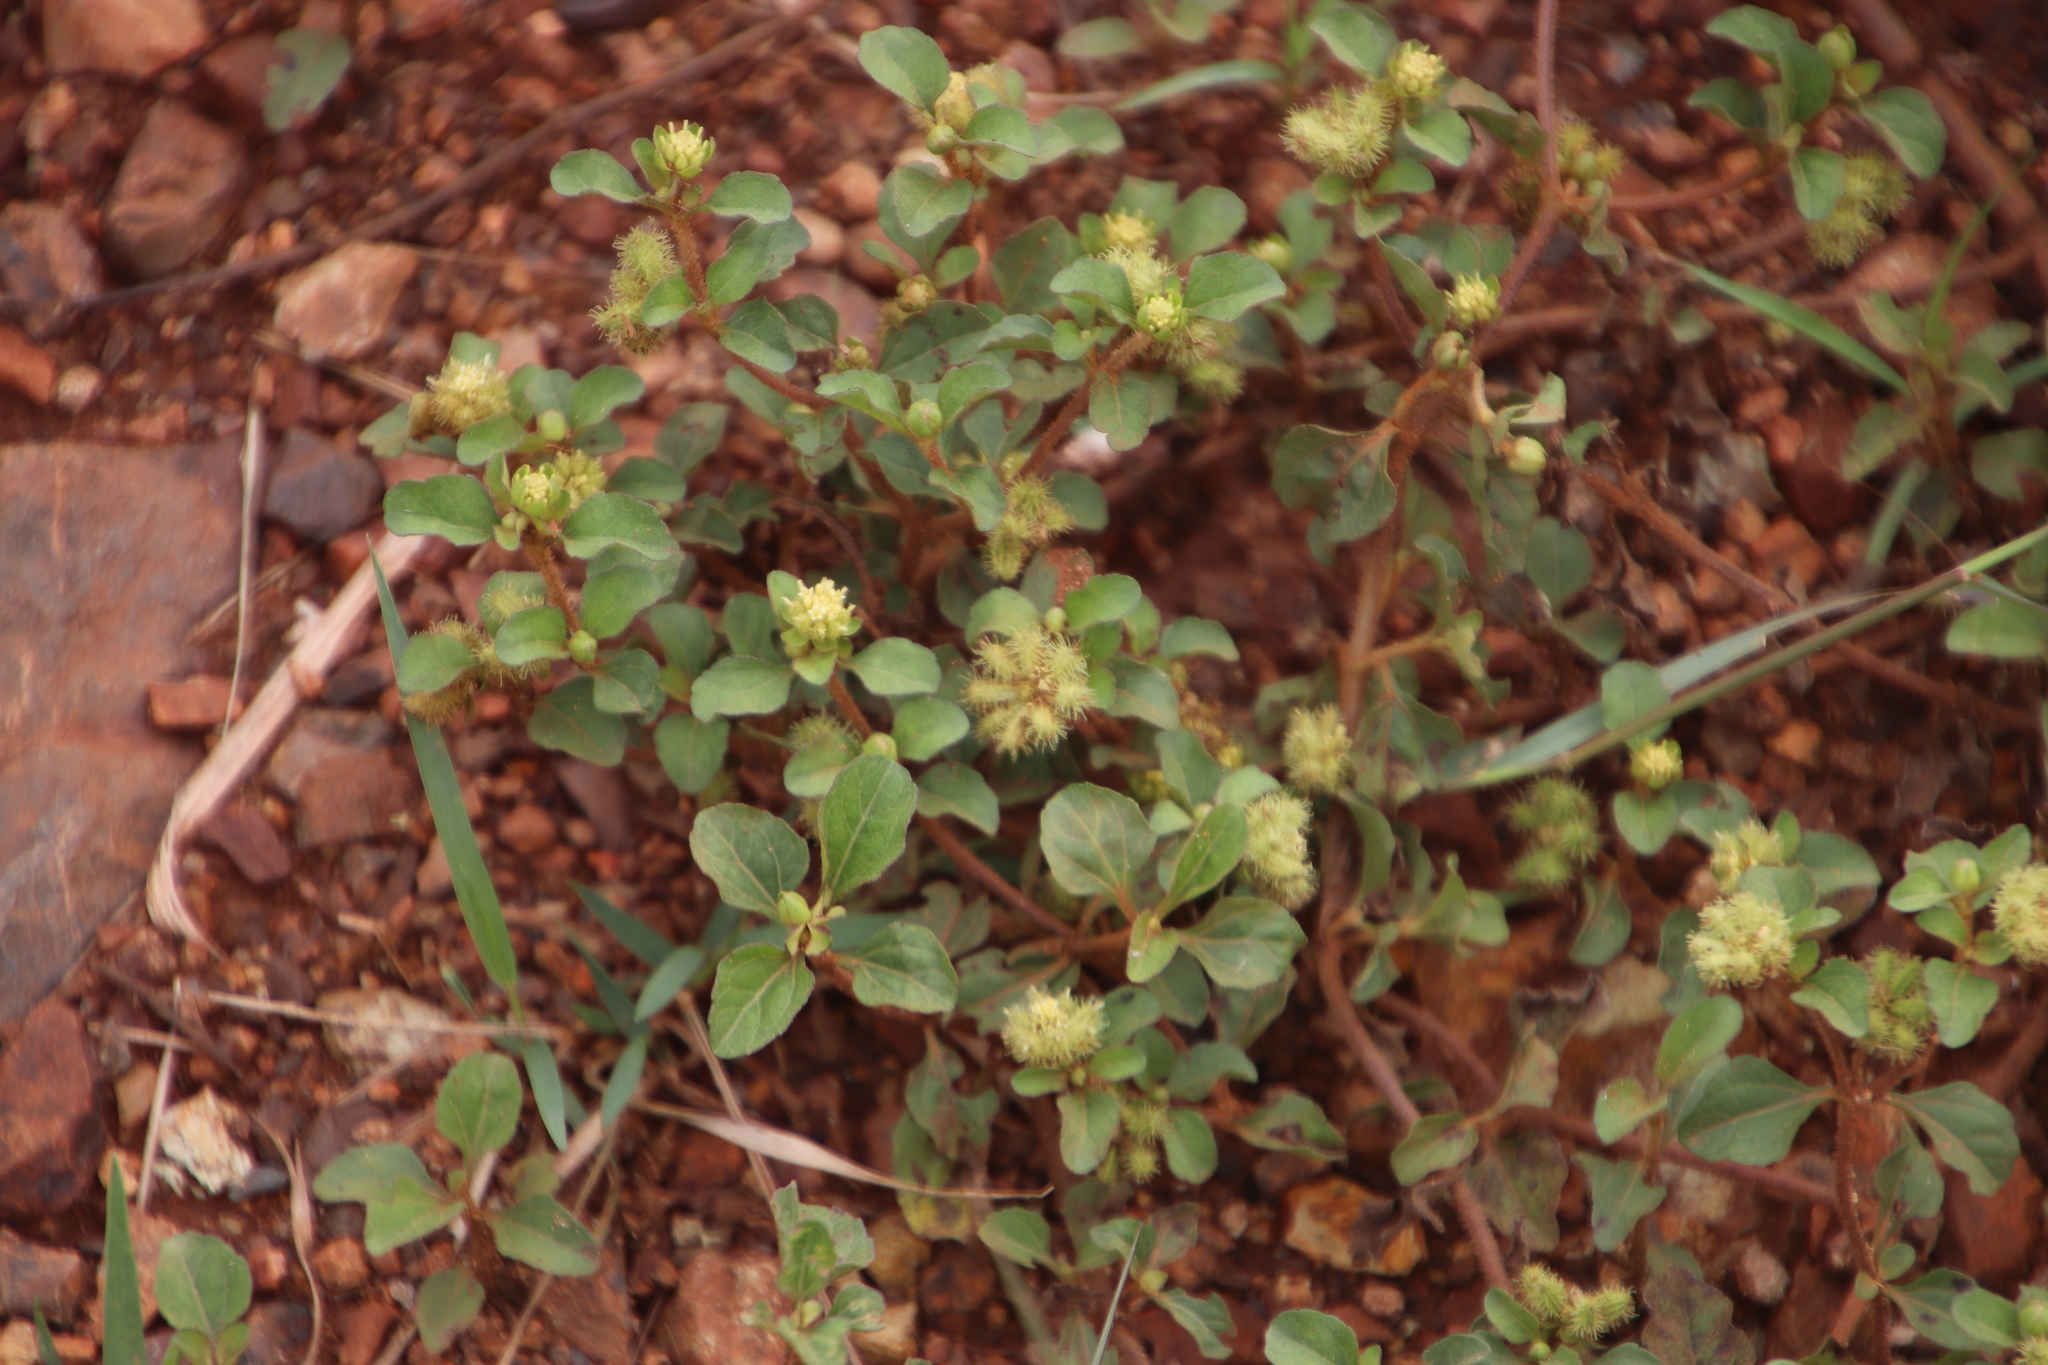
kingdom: Plantae
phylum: Tracheophyta
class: Magnoliopsida
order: Asterales
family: Asteraceae
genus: Acanthospermum
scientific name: Acanthospermum australe
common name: Paraguayan starbur
